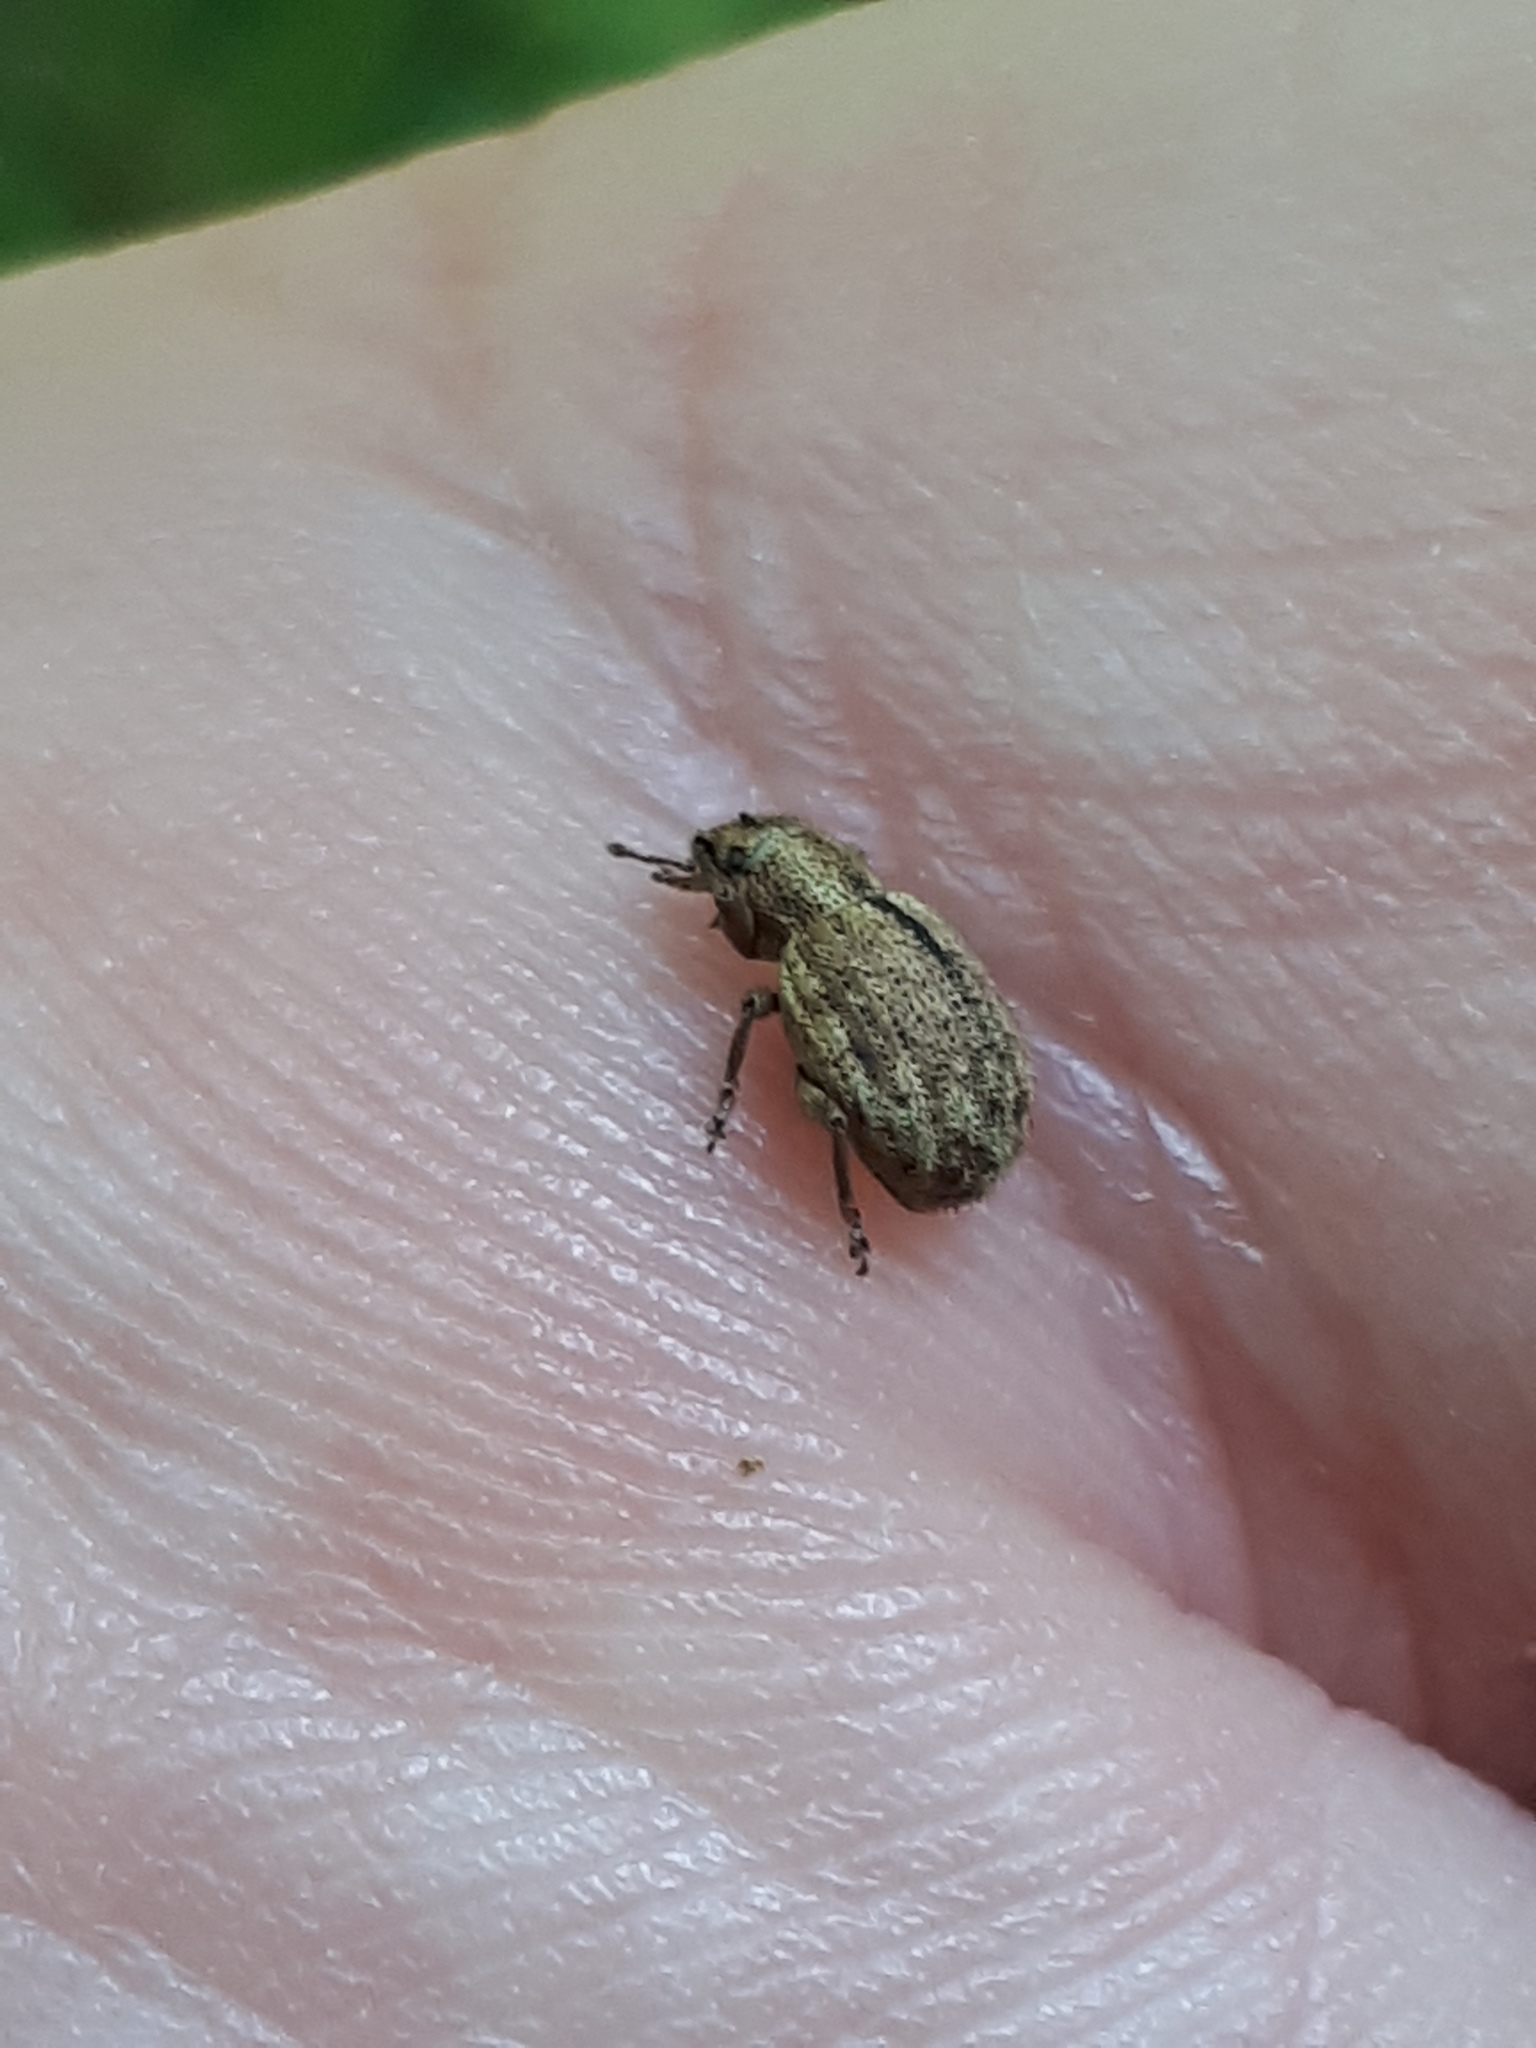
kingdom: Animalia
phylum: Arthropoda
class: Insecta
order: Coleoptera
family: Curculionidae
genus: Strophosoma
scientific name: Strophosoma melanogrammum
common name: Weevil
